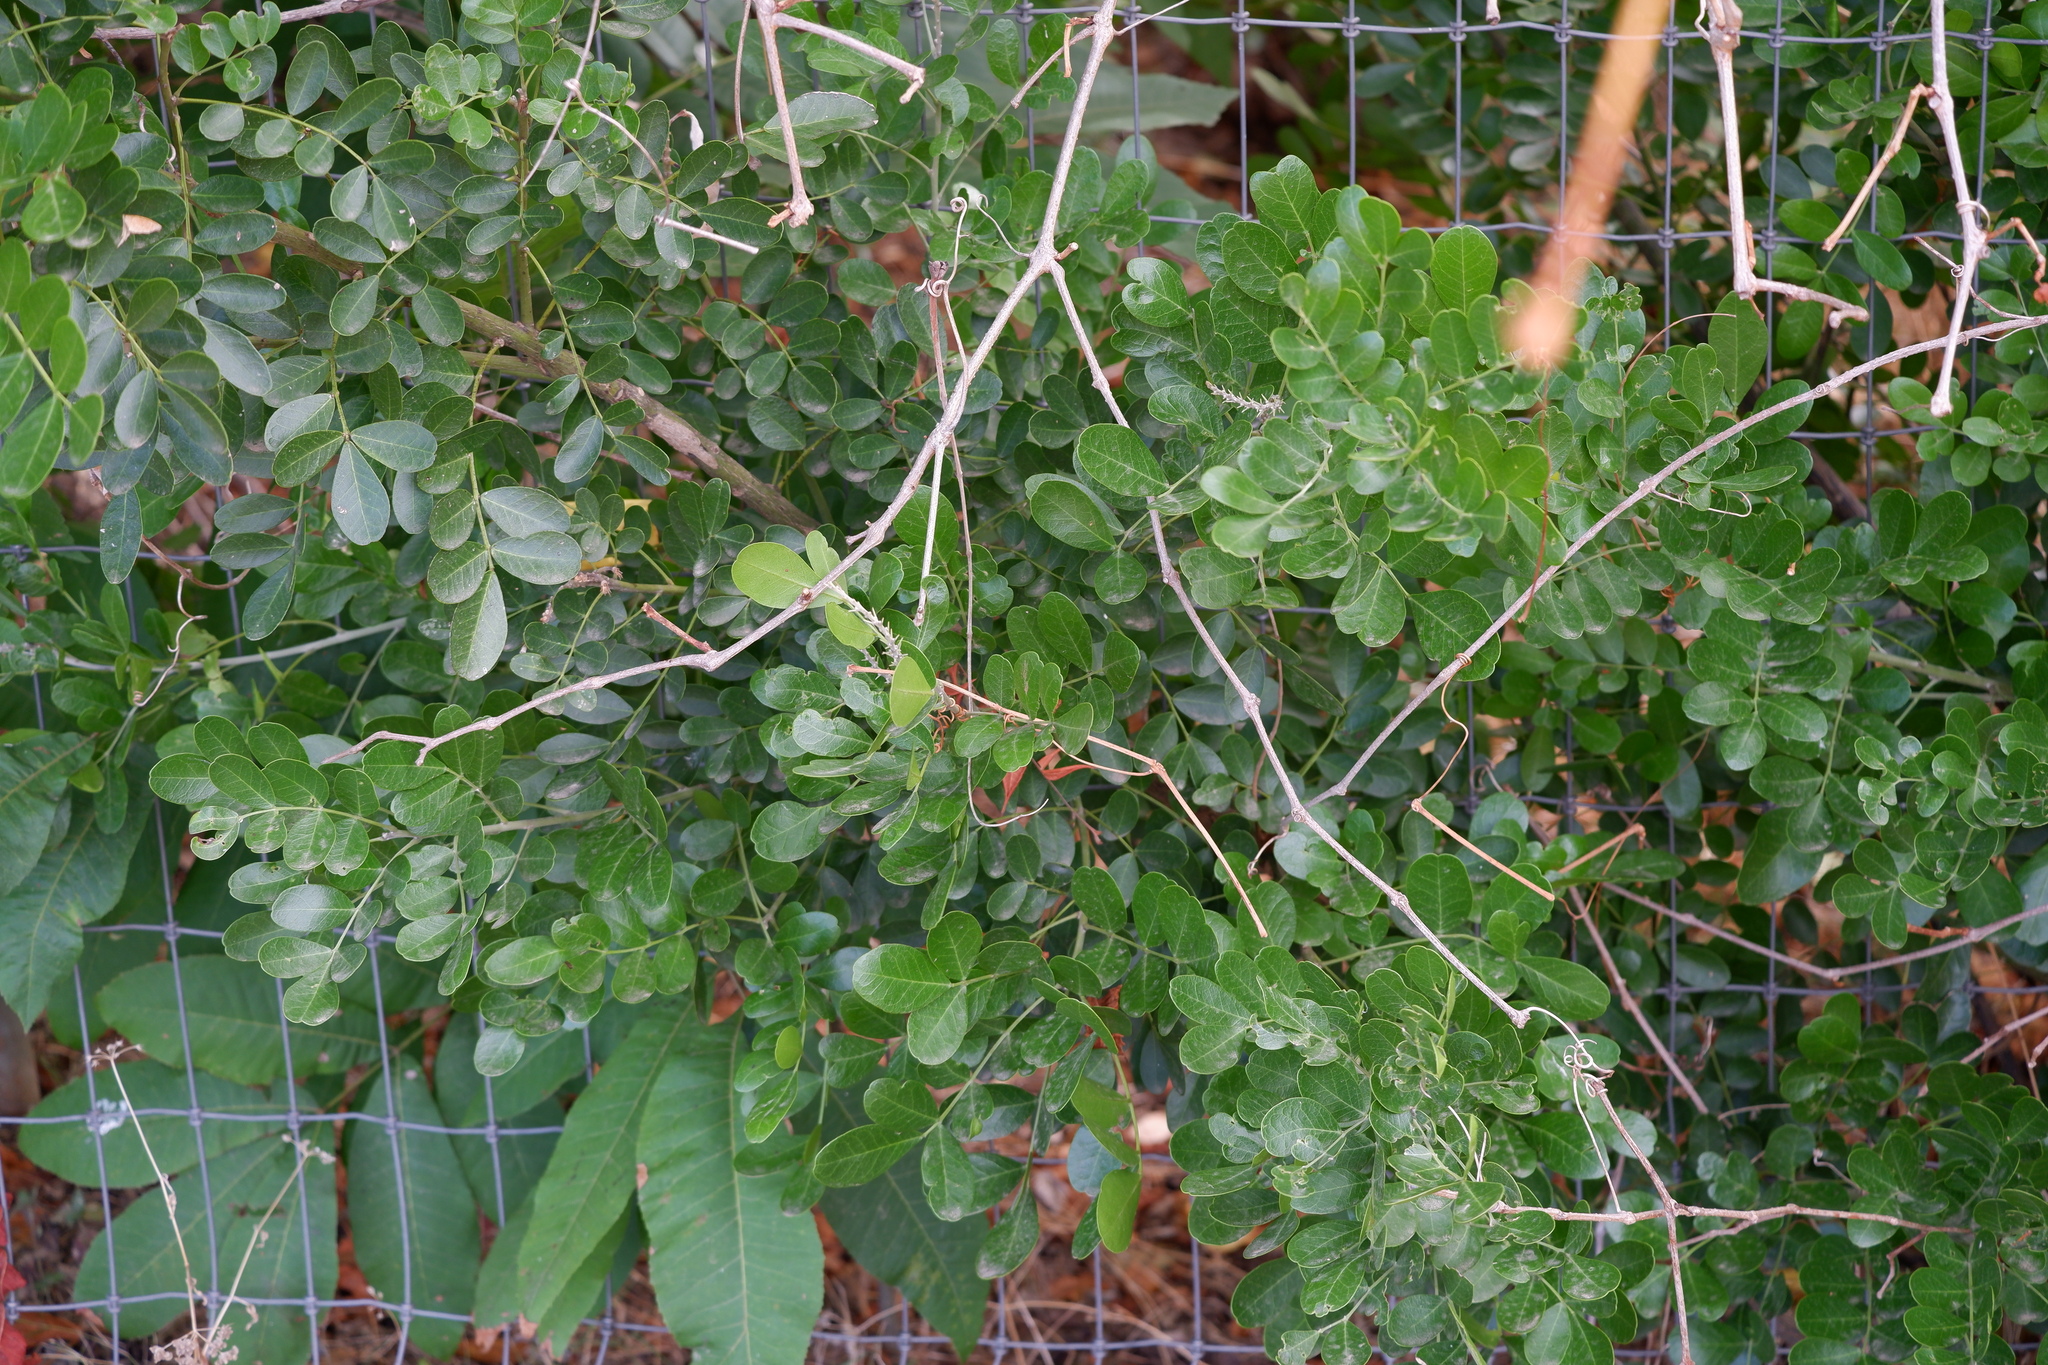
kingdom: Plantae
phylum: Tracheophyta
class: Magnoliopsida
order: Fabales
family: Fabaceae
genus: Dermatophyllum
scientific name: Dermatophyllum secundiflorum
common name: Texas-mountain-laurel
